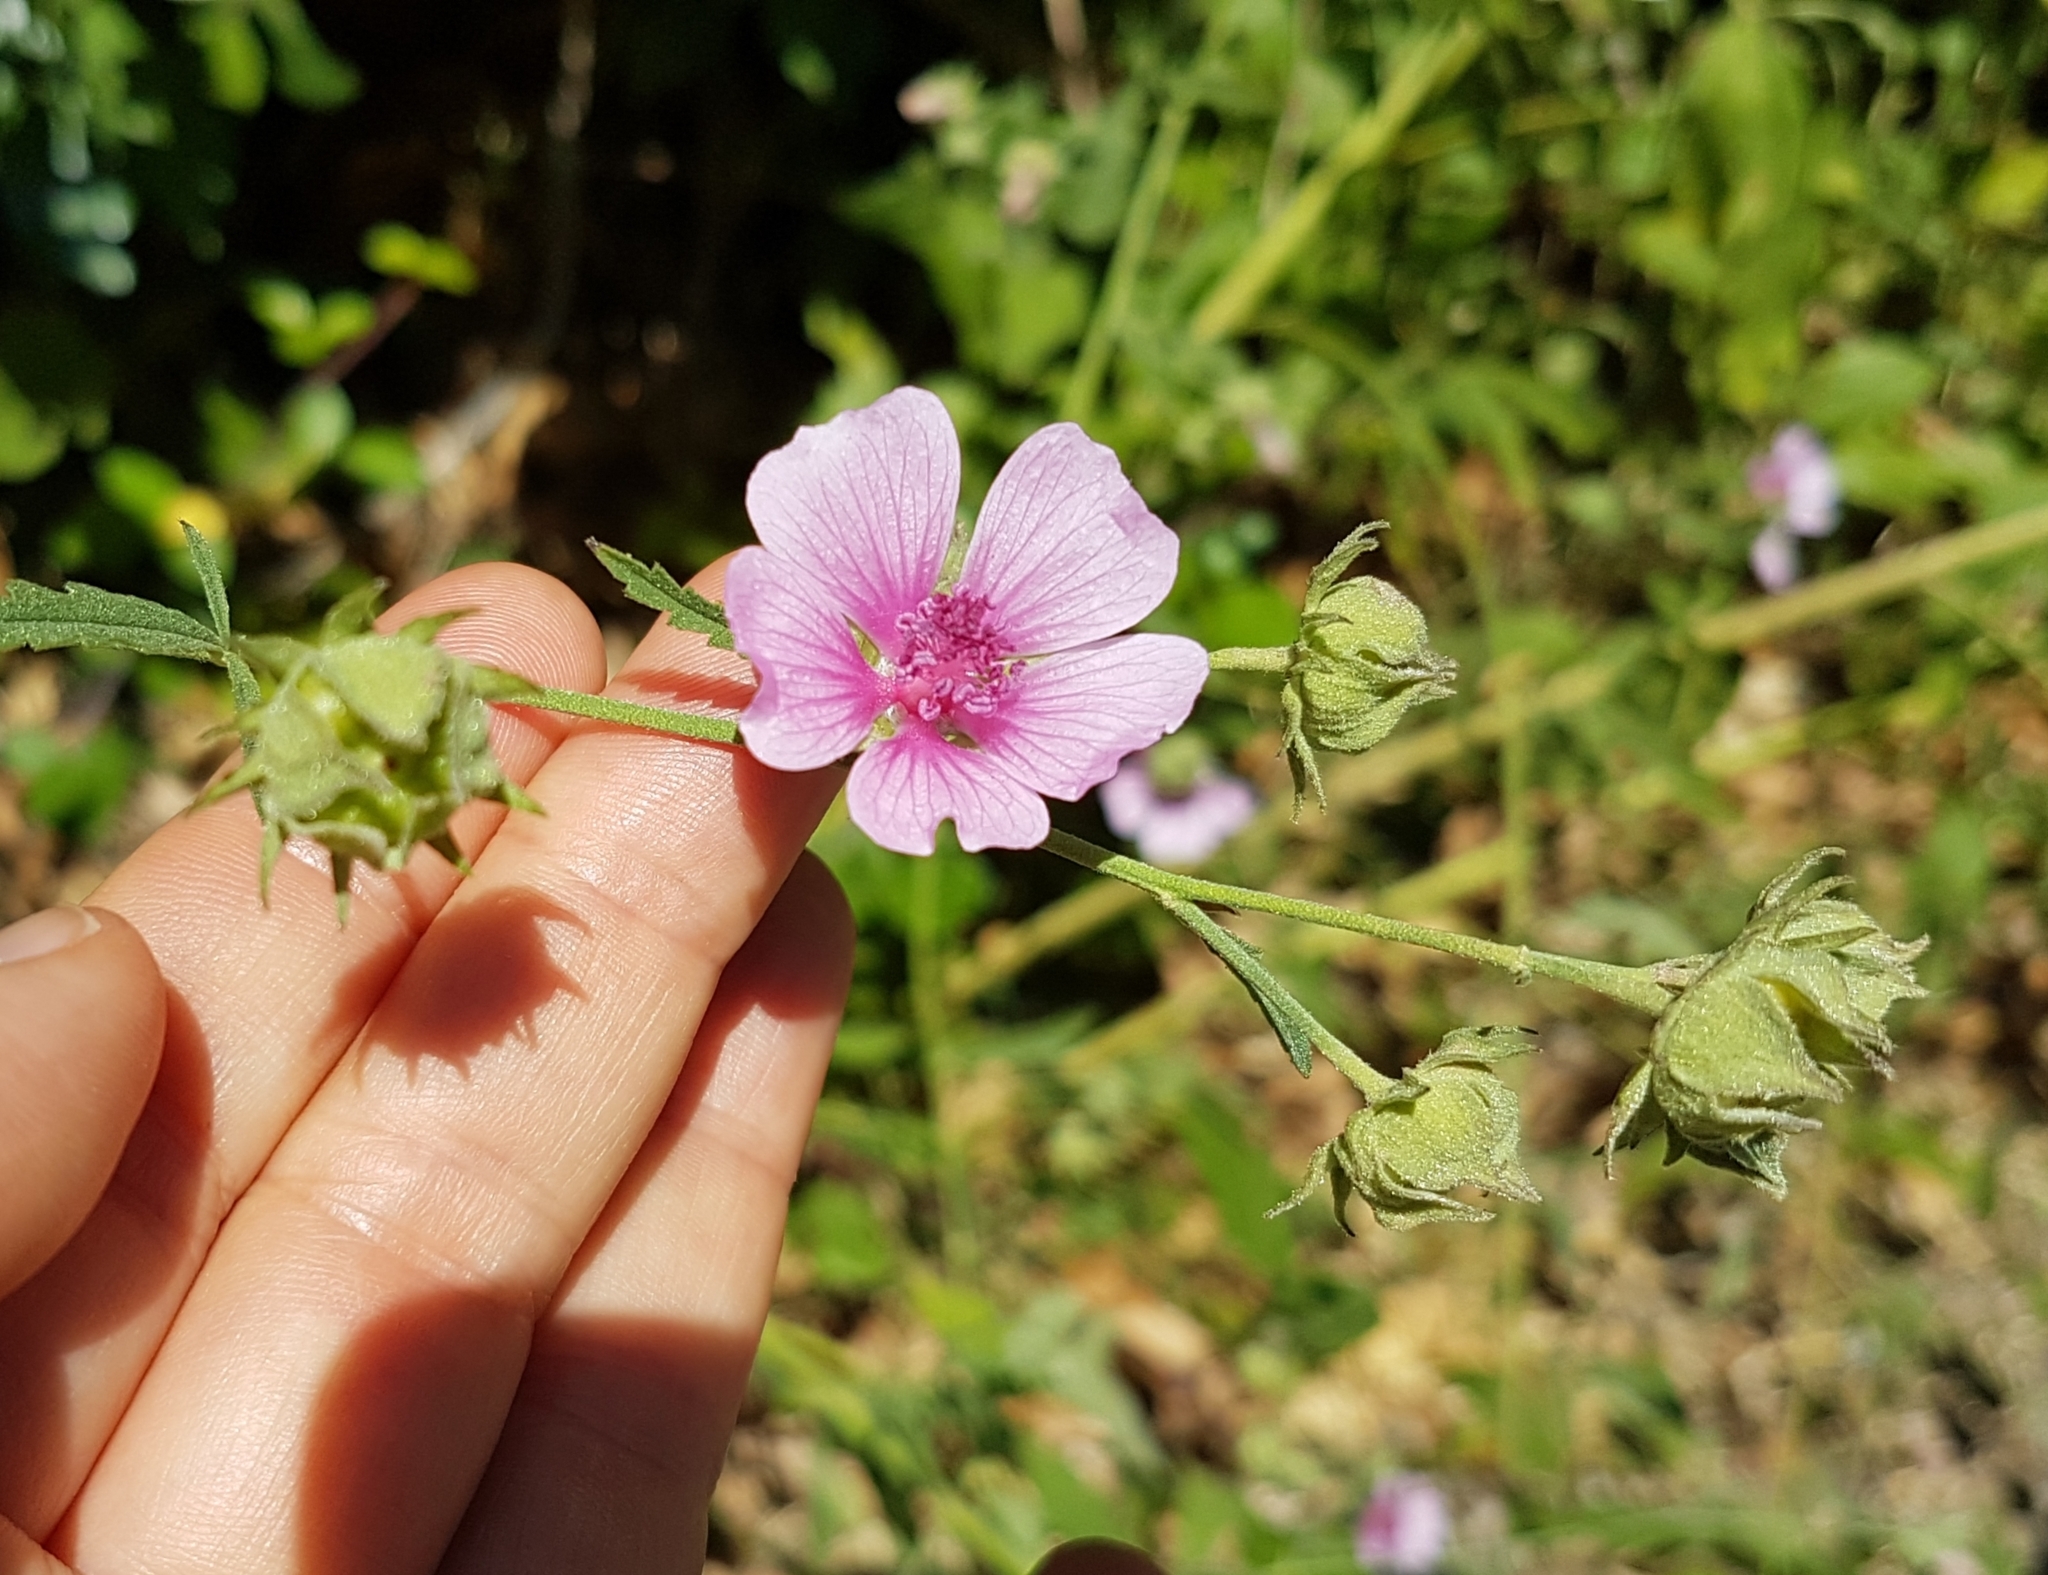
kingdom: Plantae
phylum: Tracheophyta
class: Magnoliopsida
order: Malvales
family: Malvaceae
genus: Althaea
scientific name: Althaea cannabina
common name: Palm-leaf marshmallow
